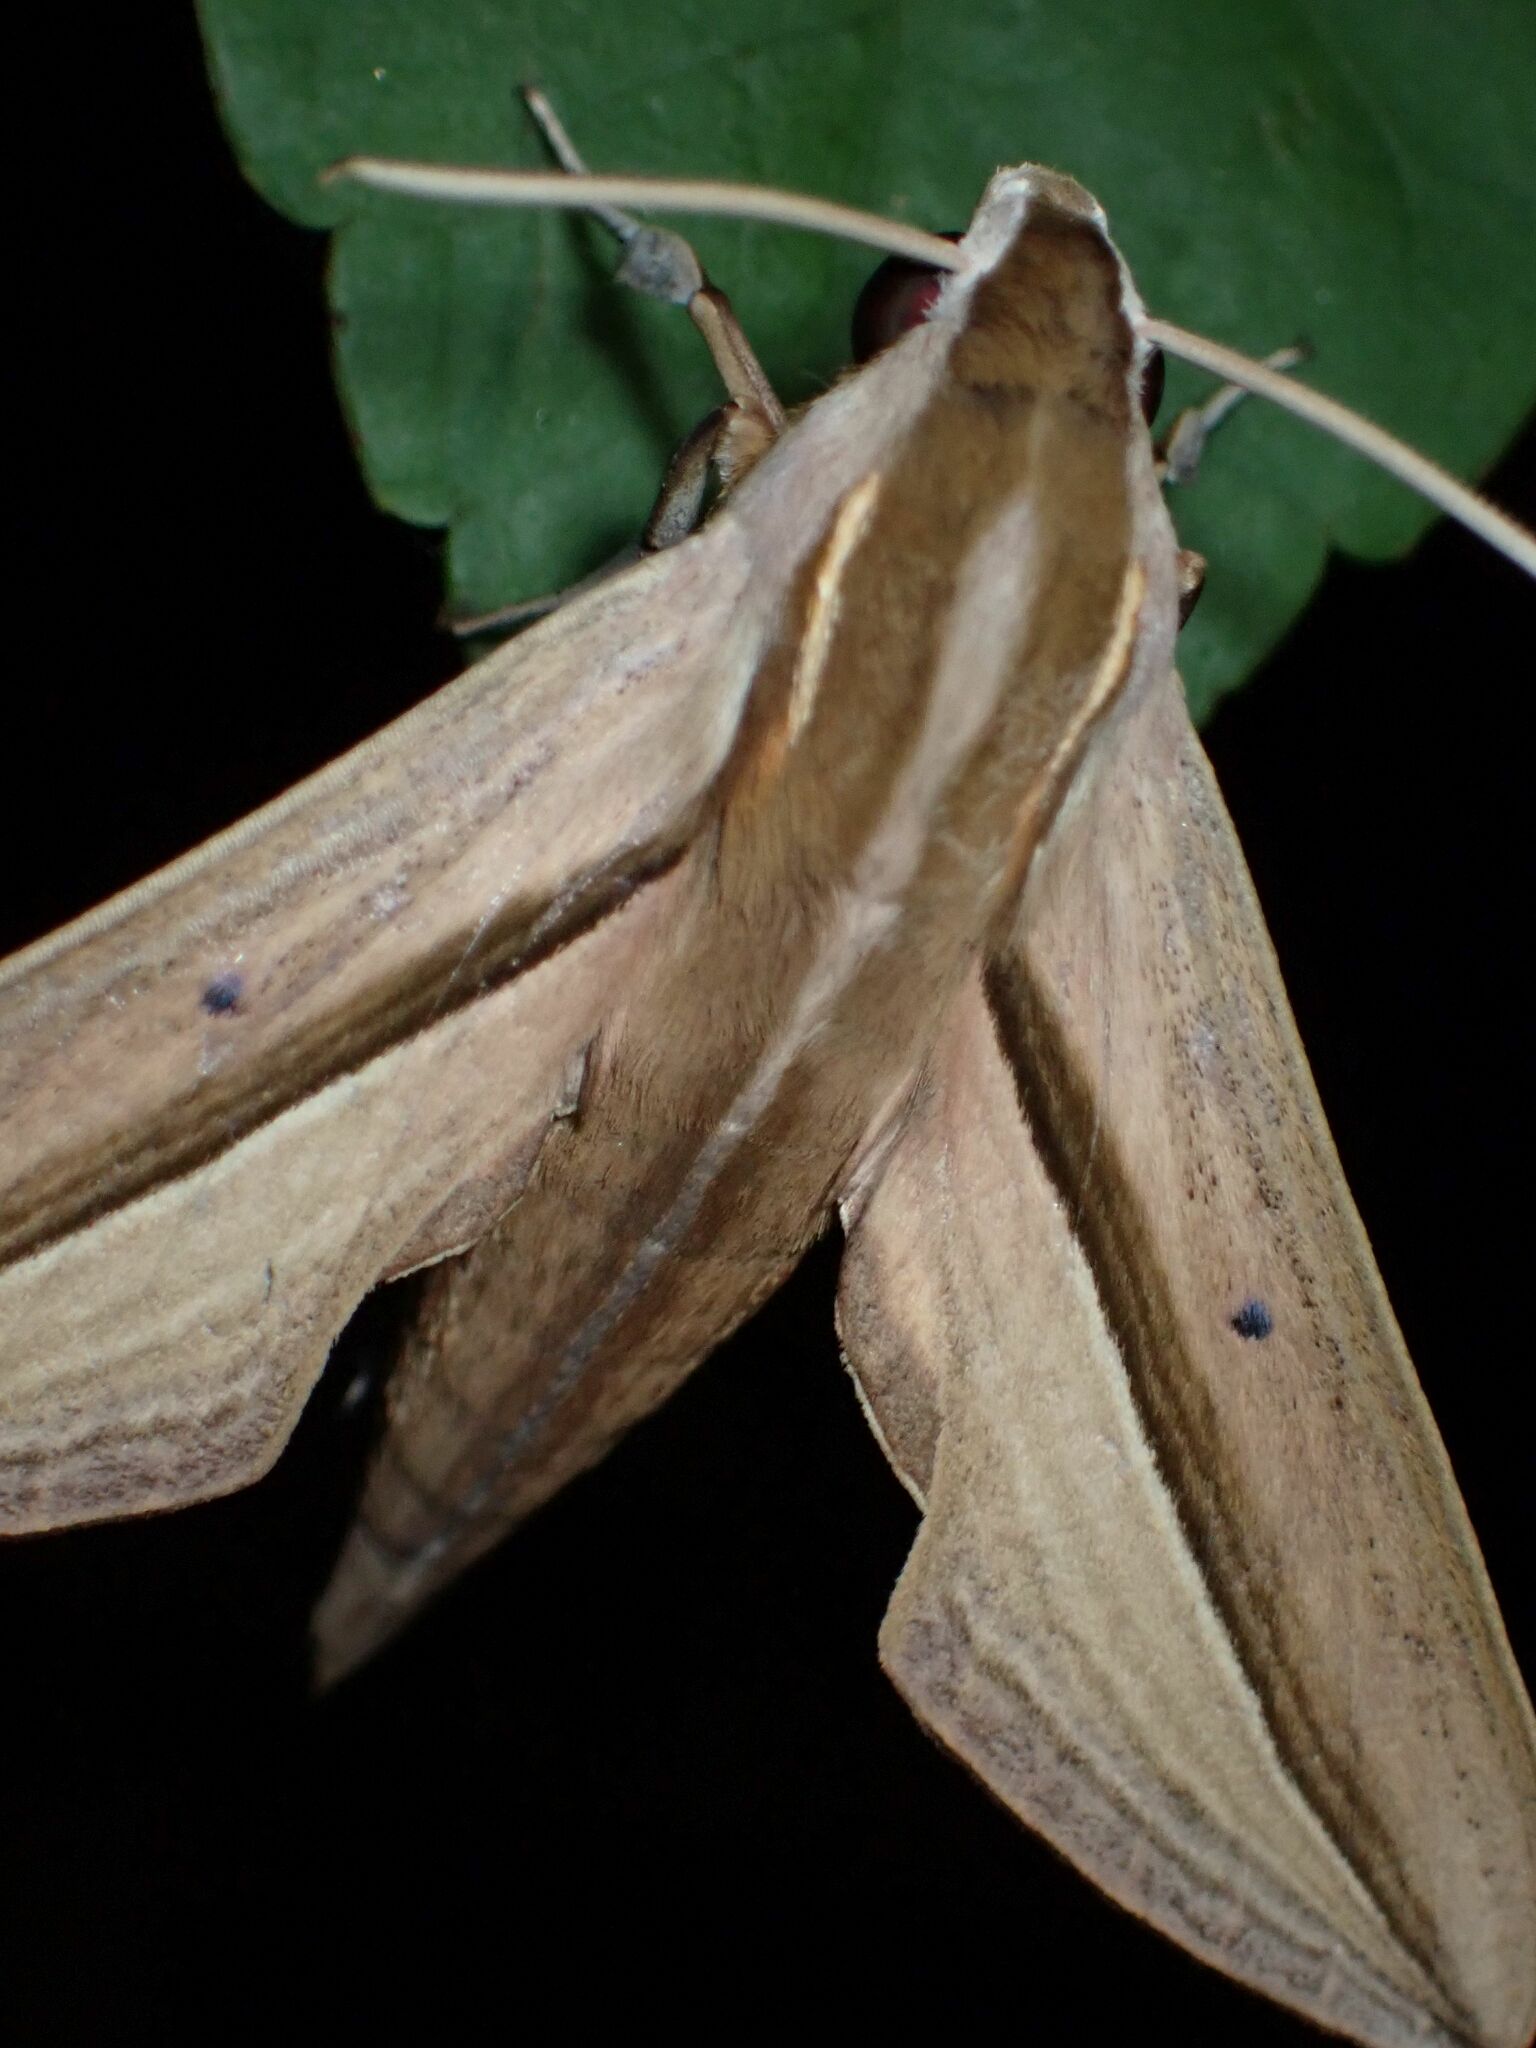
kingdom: Animalia
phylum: Arthropoda
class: Insecta
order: Lepidoptera
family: Sphingidae
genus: Theretra
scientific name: Theretra silhetensis
